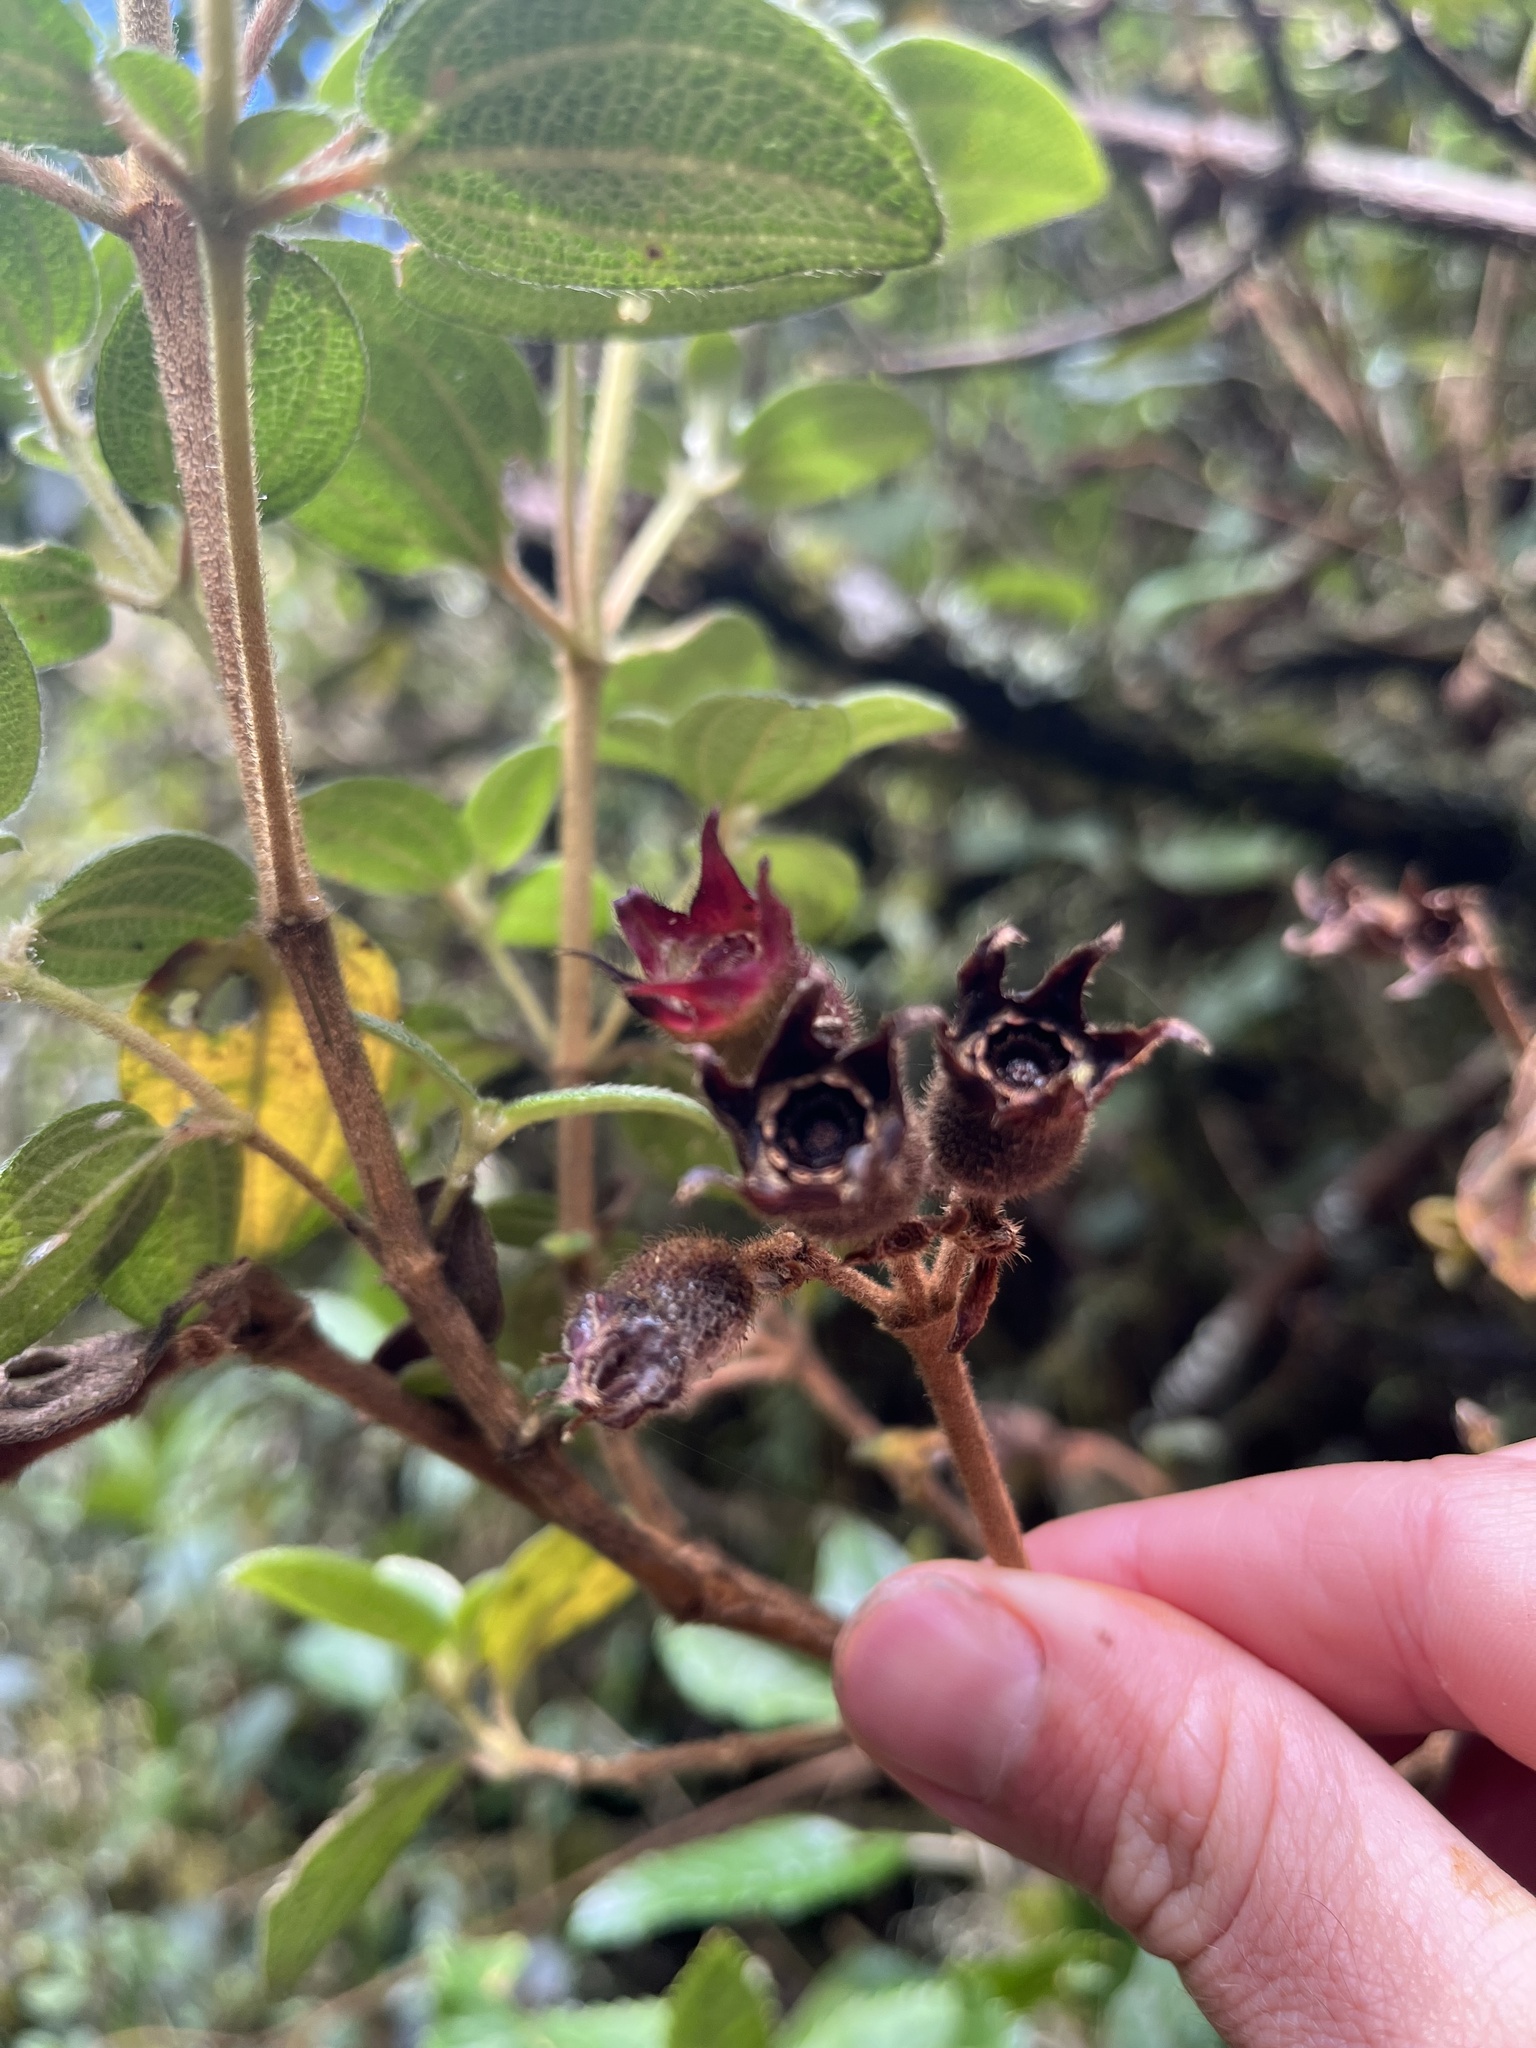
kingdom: Plantae
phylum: Tracheophyta
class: Magnoliopsida
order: Myrtales
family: Melastomataceae
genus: Chaetogastra
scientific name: Chaetogastra grossa
